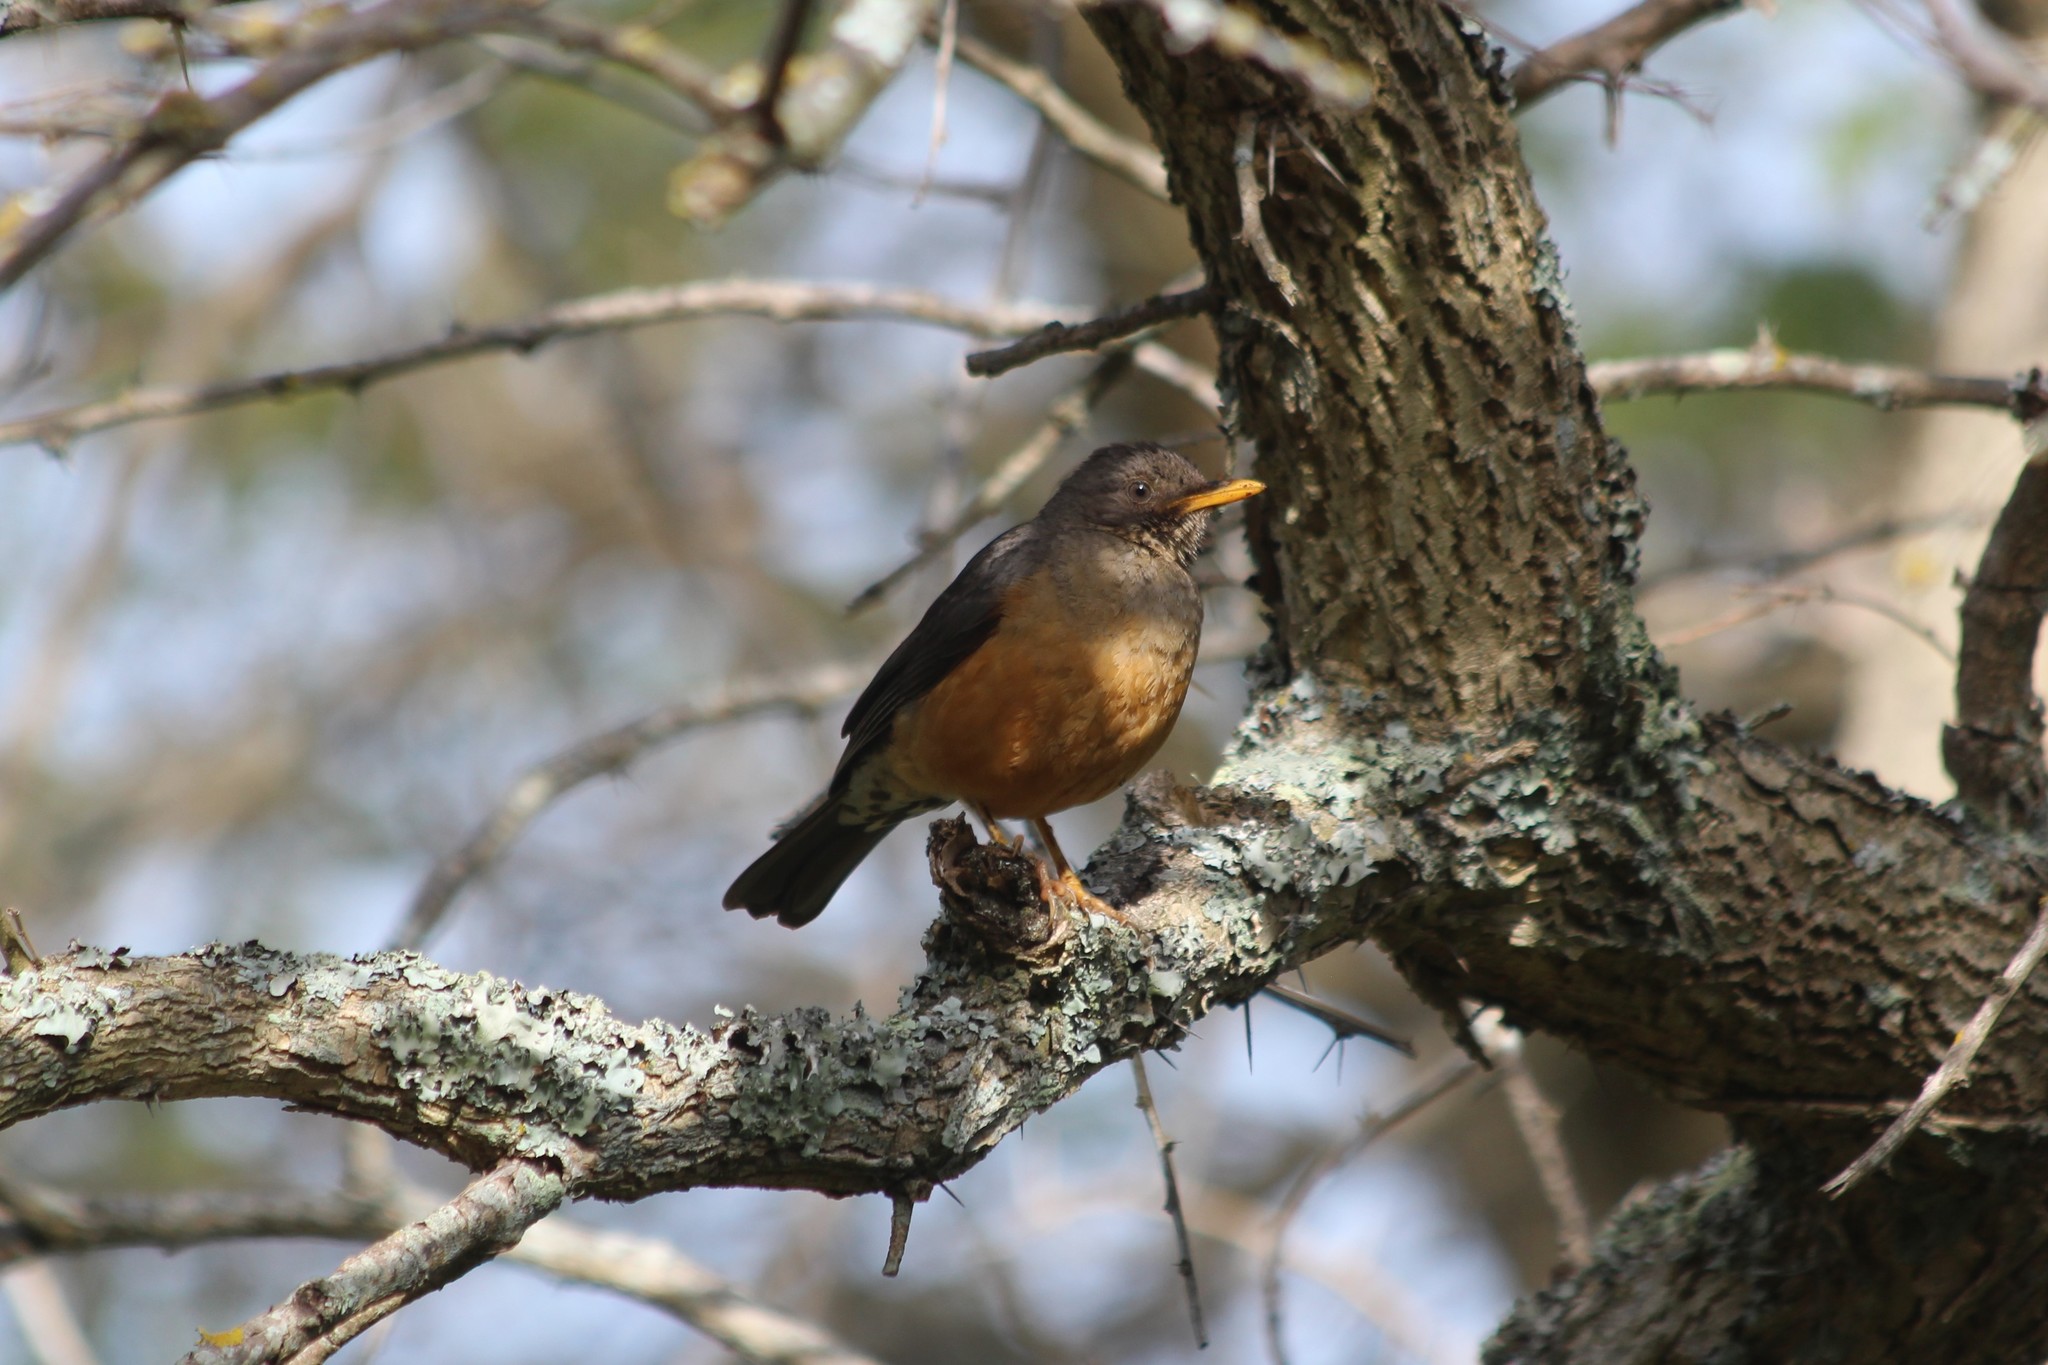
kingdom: Animalia
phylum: Chordata
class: Aves
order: Passeriformes
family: Turdidae
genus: Turdus
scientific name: Turdus olivaceus
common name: Olive thrush
